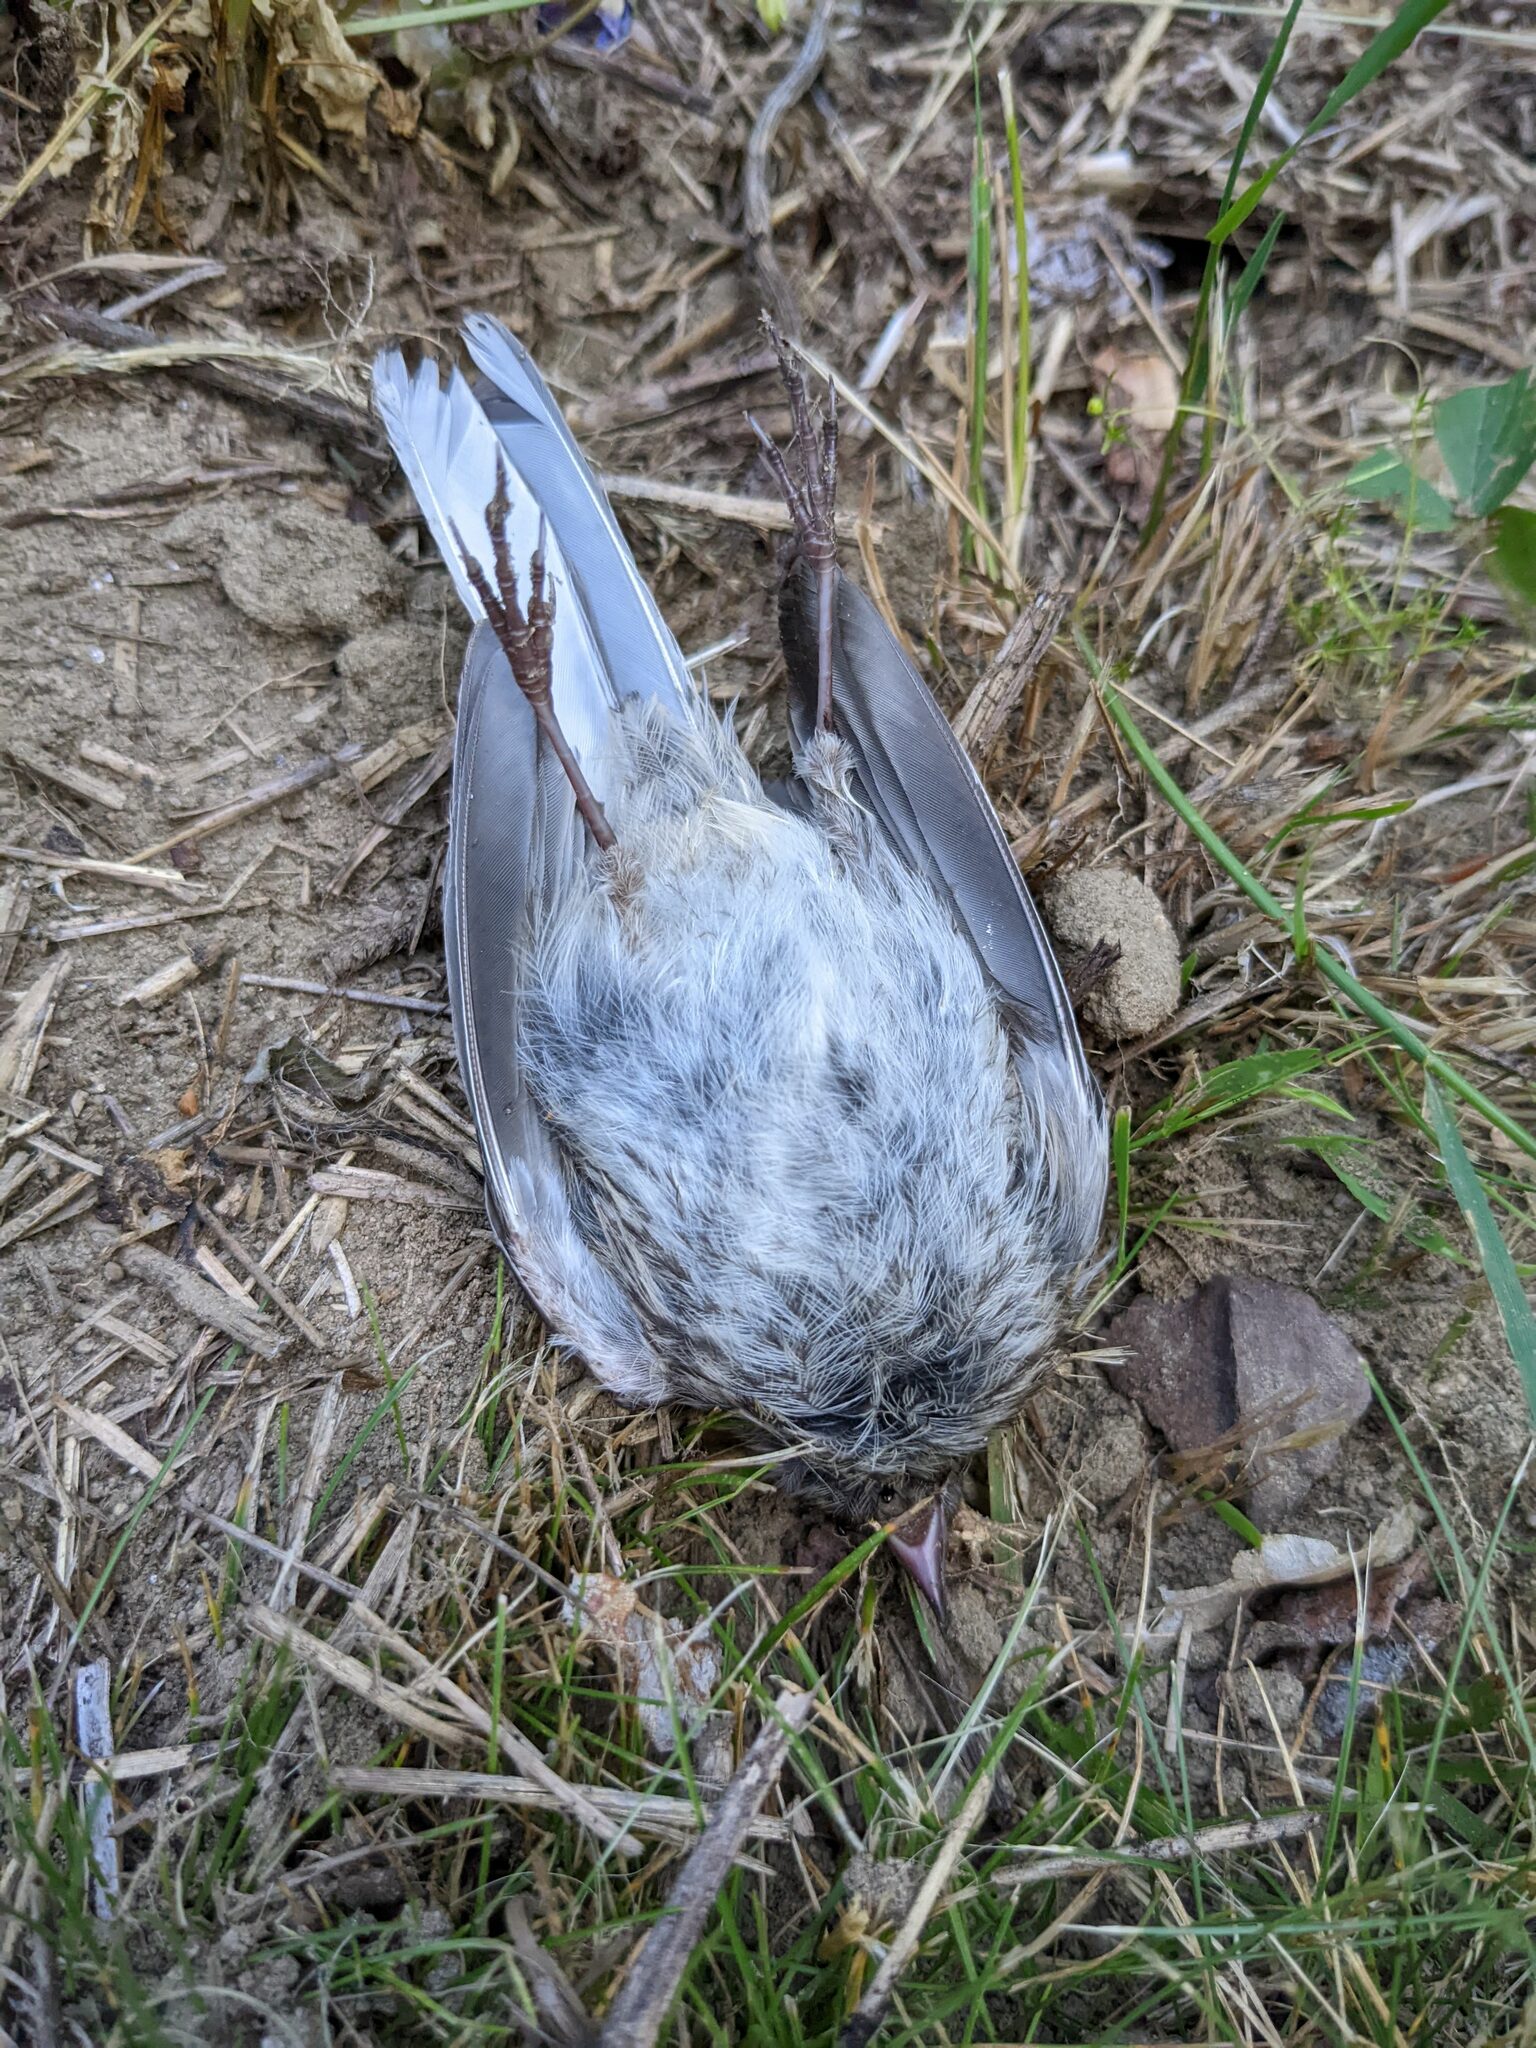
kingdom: Animalia
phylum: Chordata
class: Aves
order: Passeriformes
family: Passerellidae
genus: Junco
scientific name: Junco hyemalis
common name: Dark-eyed junco
